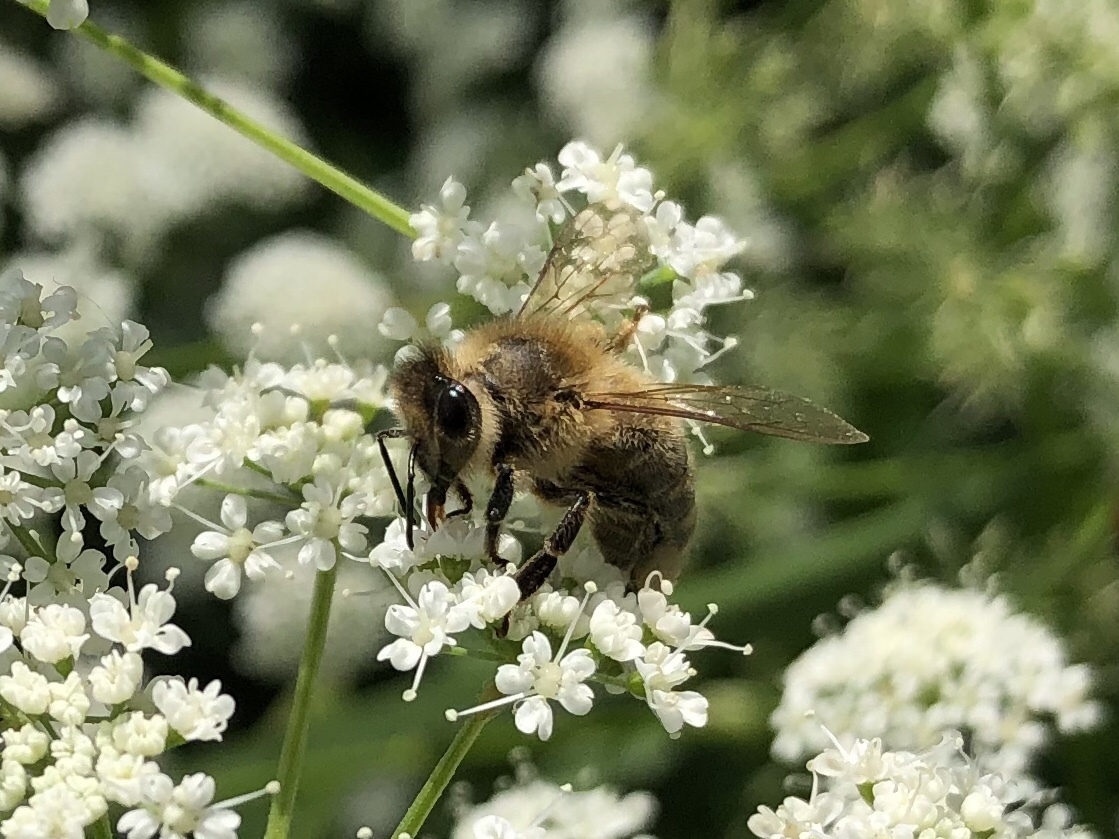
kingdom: Animalia
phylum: Arthropoda
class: Insecta
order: Hymenoptera
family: Apidae
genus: Apis
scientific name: Apis mellifera
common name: Honey bee
